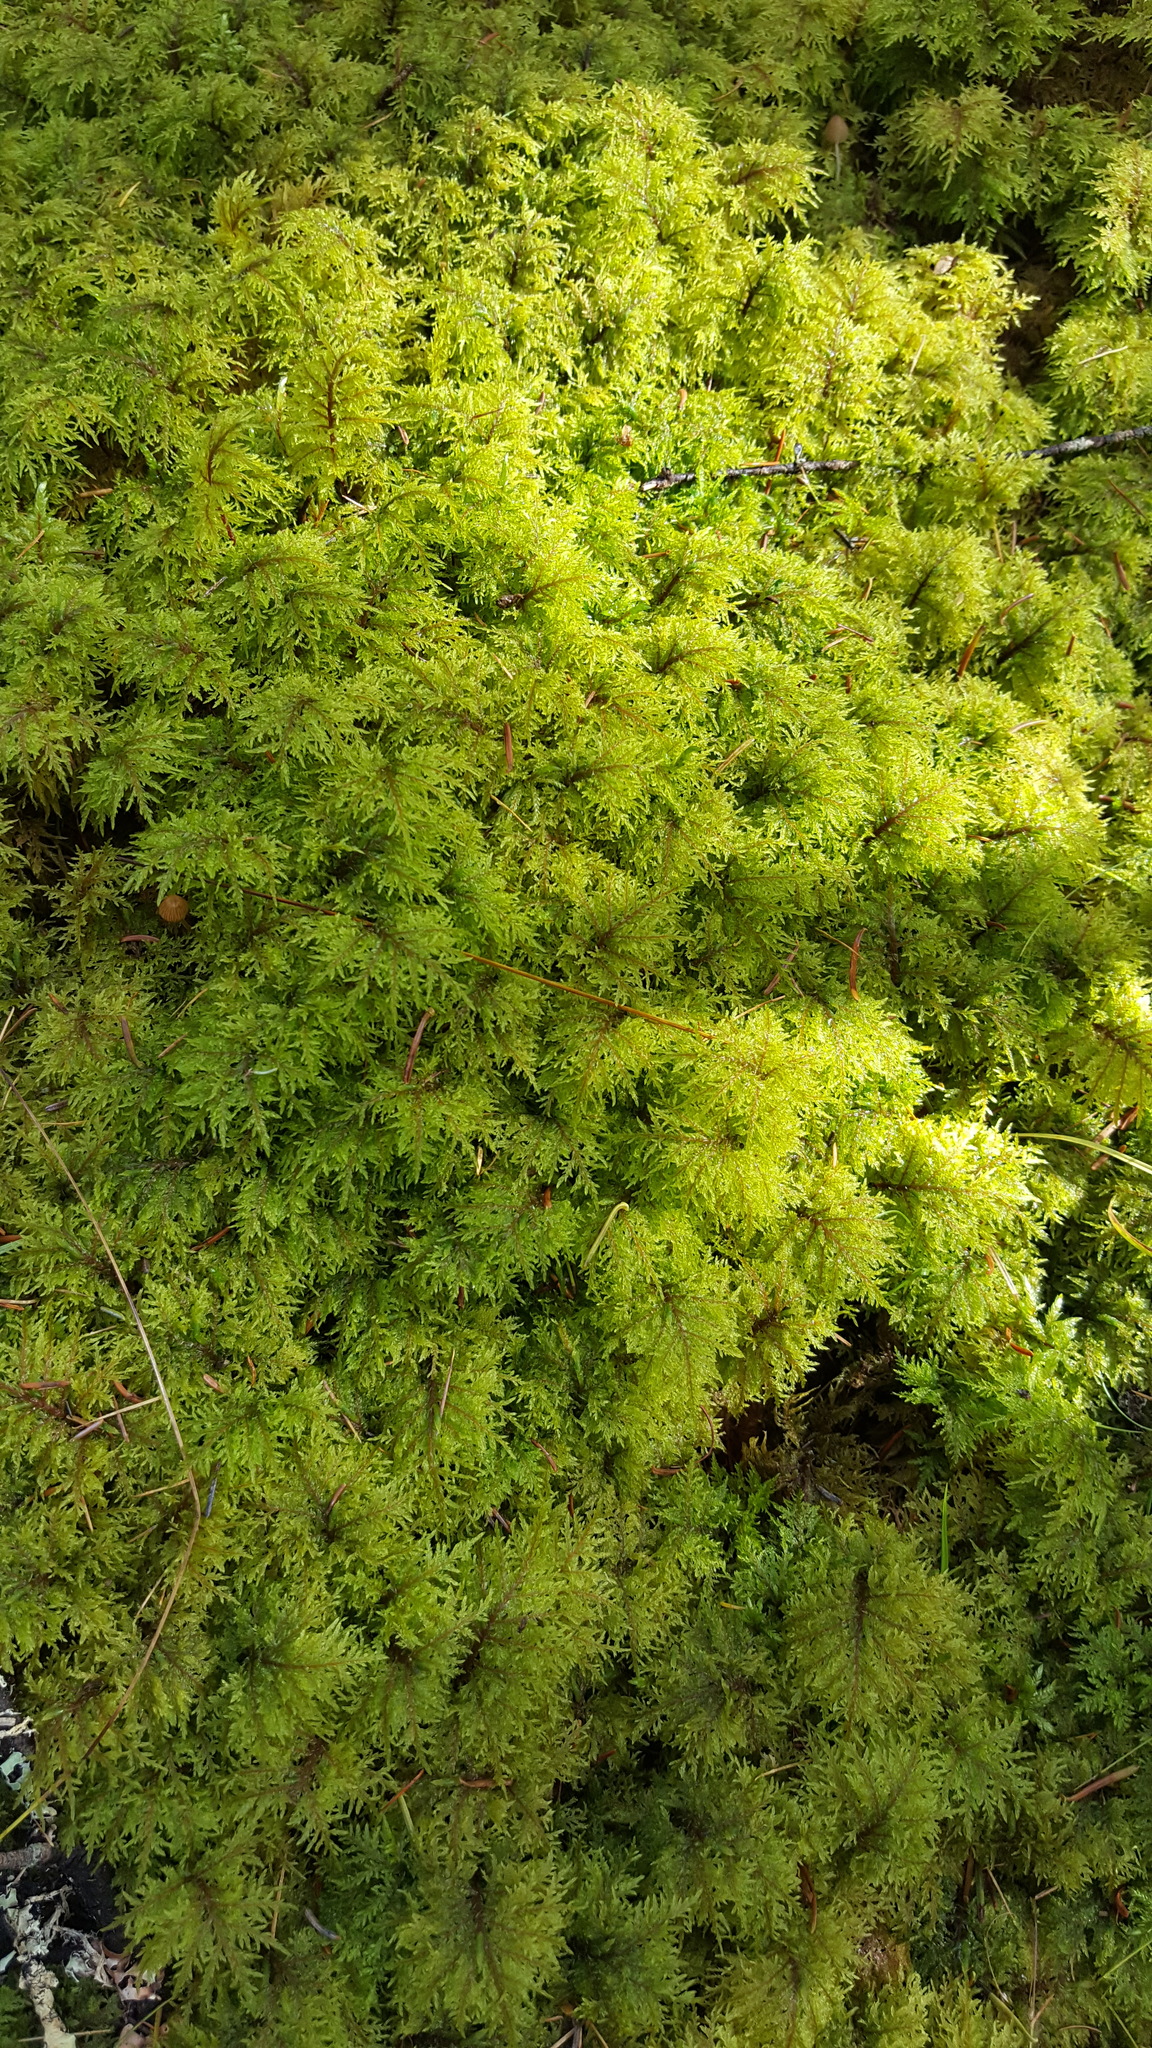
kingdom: Plantae
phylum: Bryophyta
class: Bryopsida
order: Hypnales
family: Hylocomiaceae
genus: Hylocomium
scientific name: Hylocomium splendens
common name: Stairstep moss
